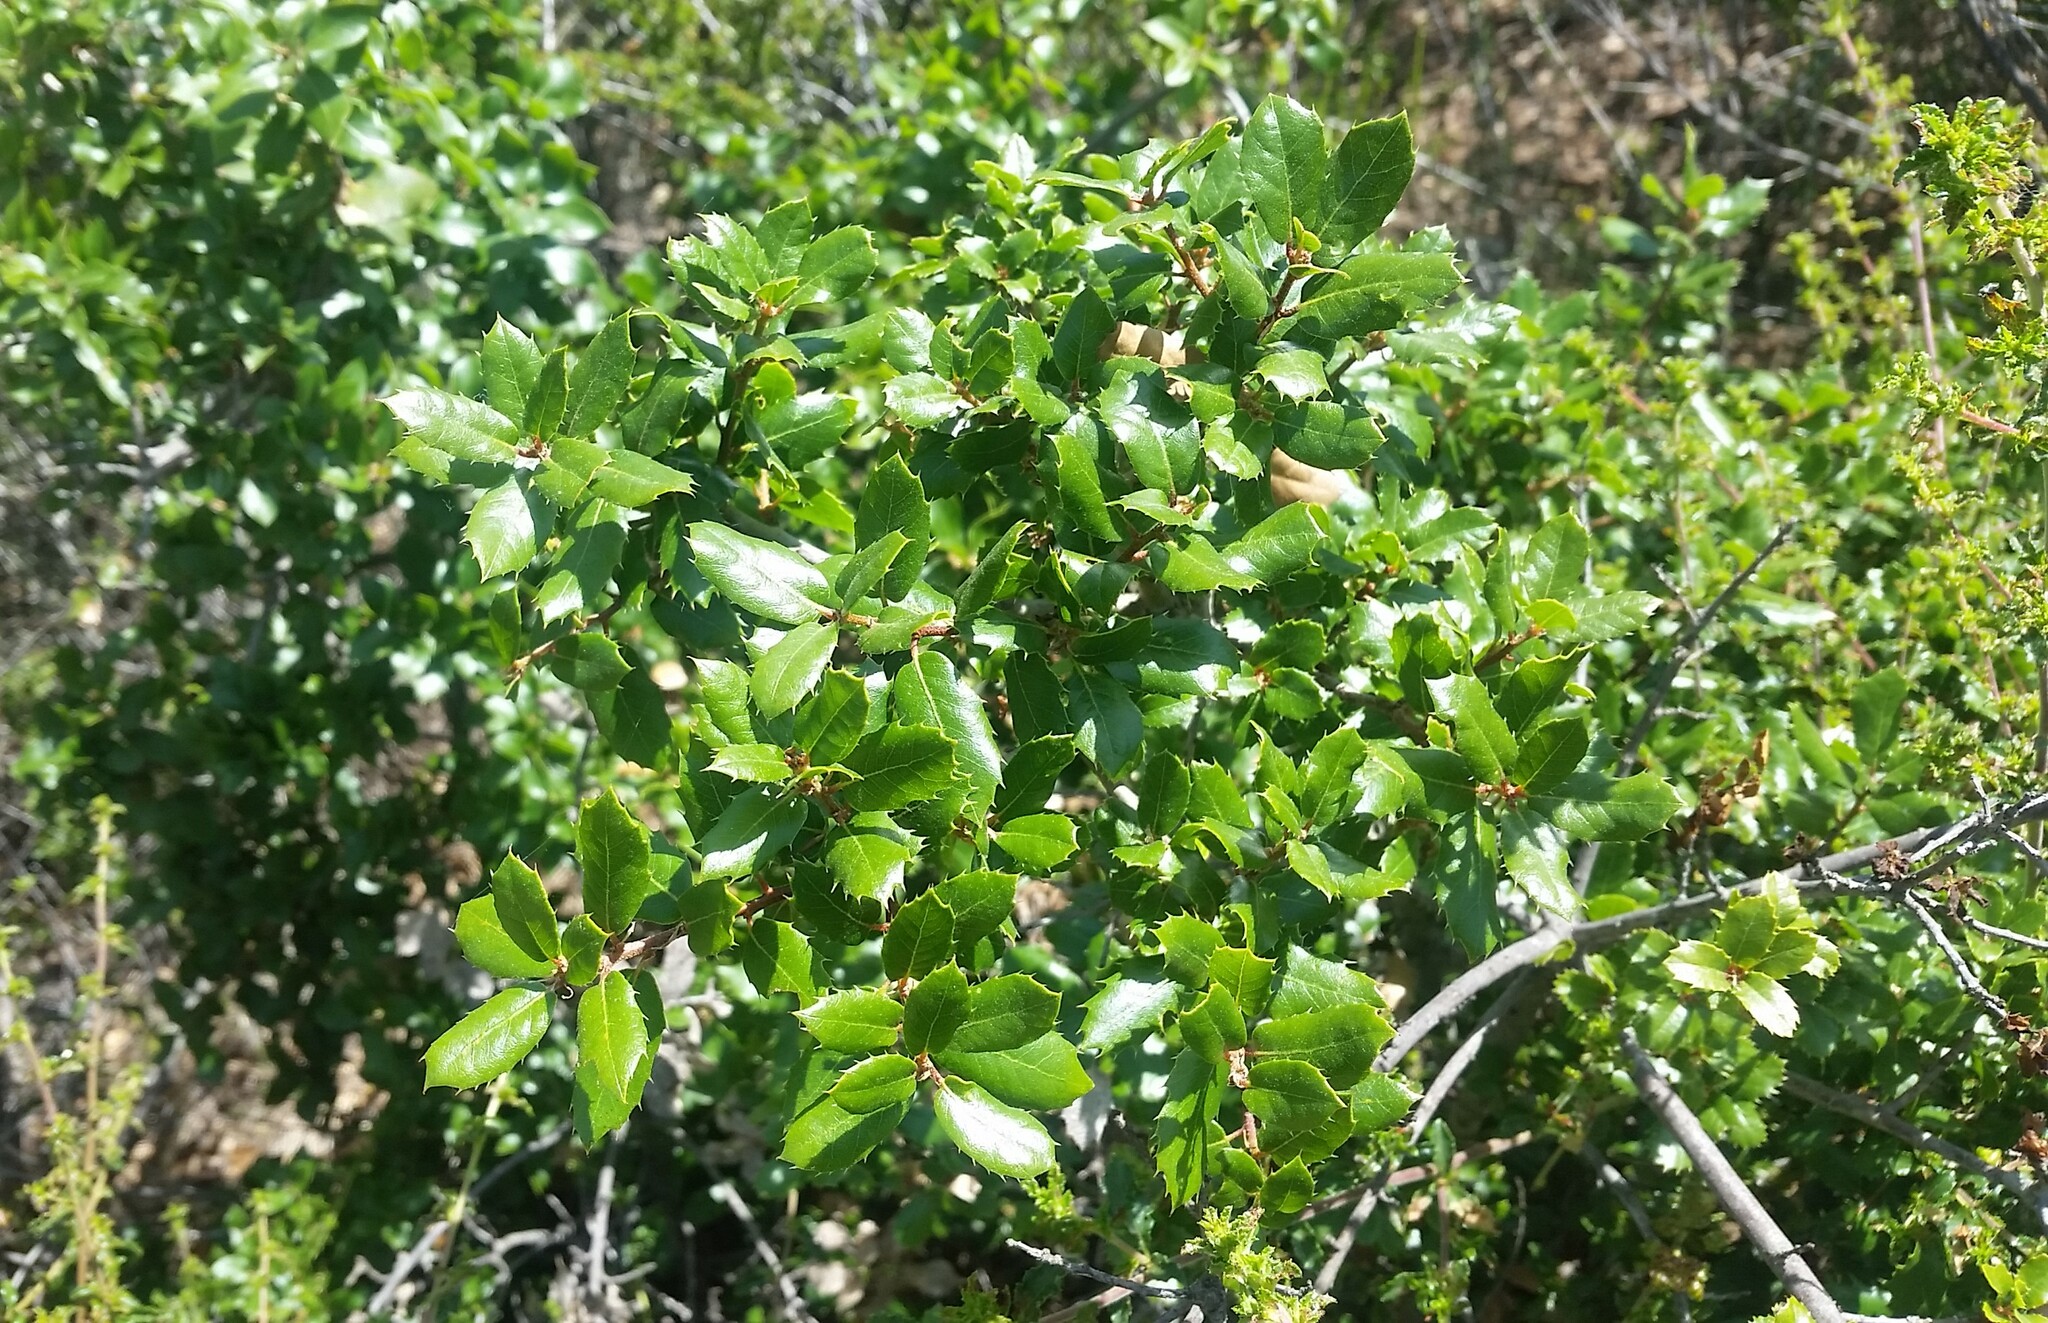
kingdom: Plantae
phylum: Tracheophyta
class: Magnoliopsida
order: Fagales
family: Fagaceae
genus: Quercus
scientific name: Quercus berberidifolia
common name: California scrub oak
